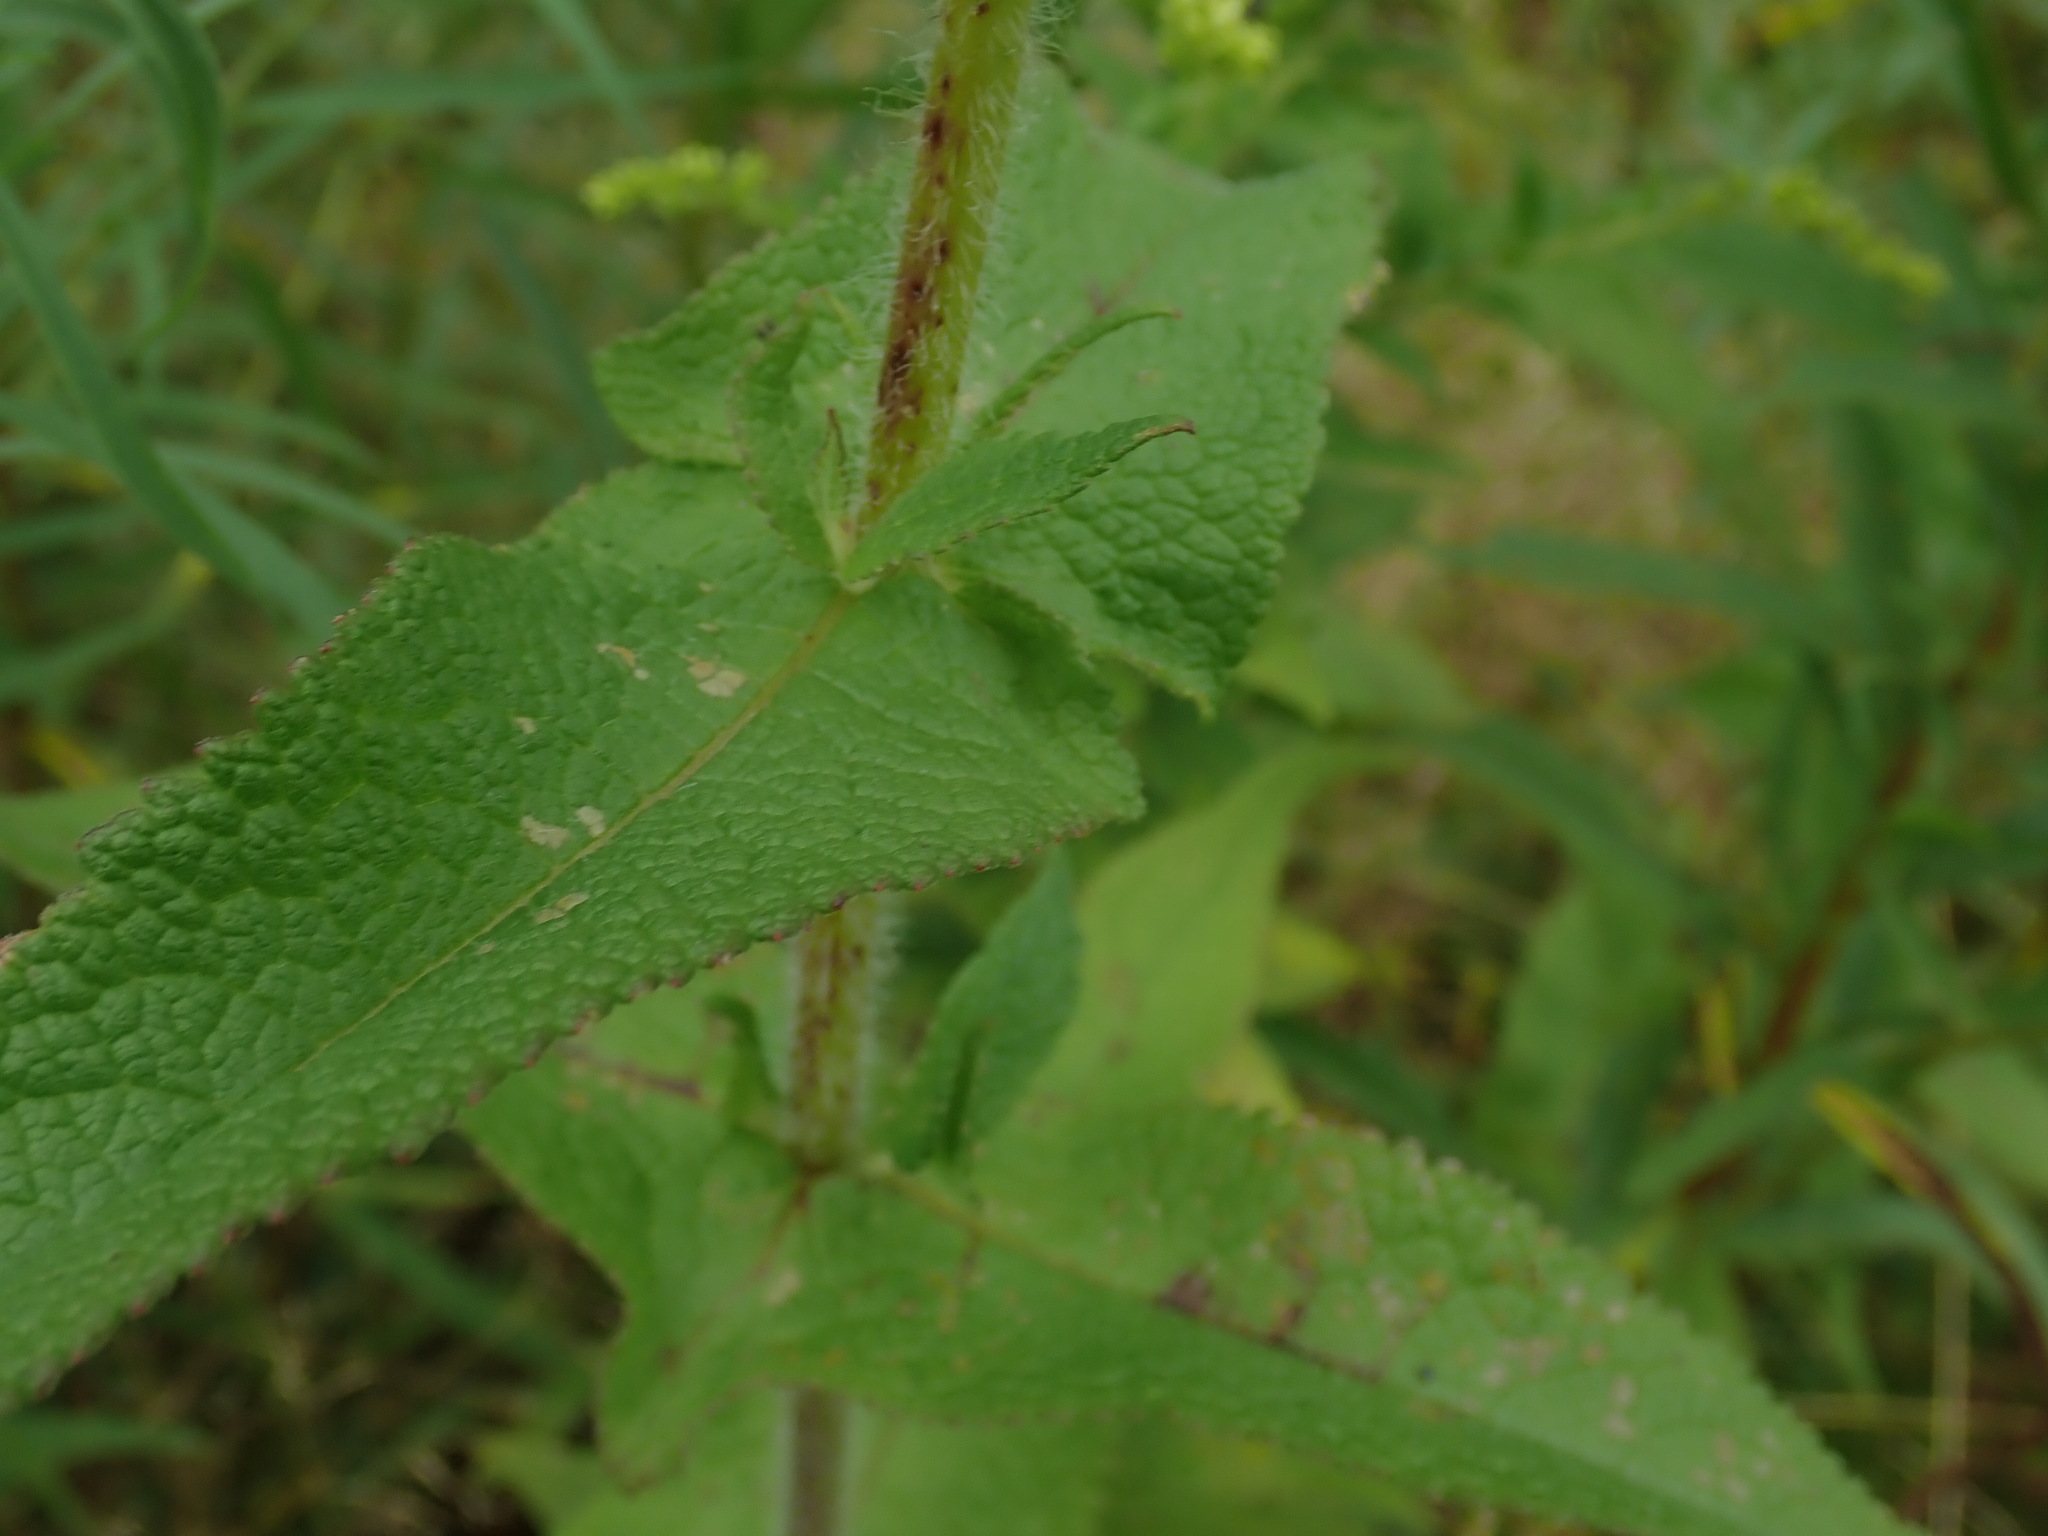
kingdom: Plantae
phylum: Tracheophyta
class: Magnoliopsida
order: Asterales
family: Asteraceae
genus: Eupatorium
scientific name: Eupatorium perfoliatum
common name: Boneset
